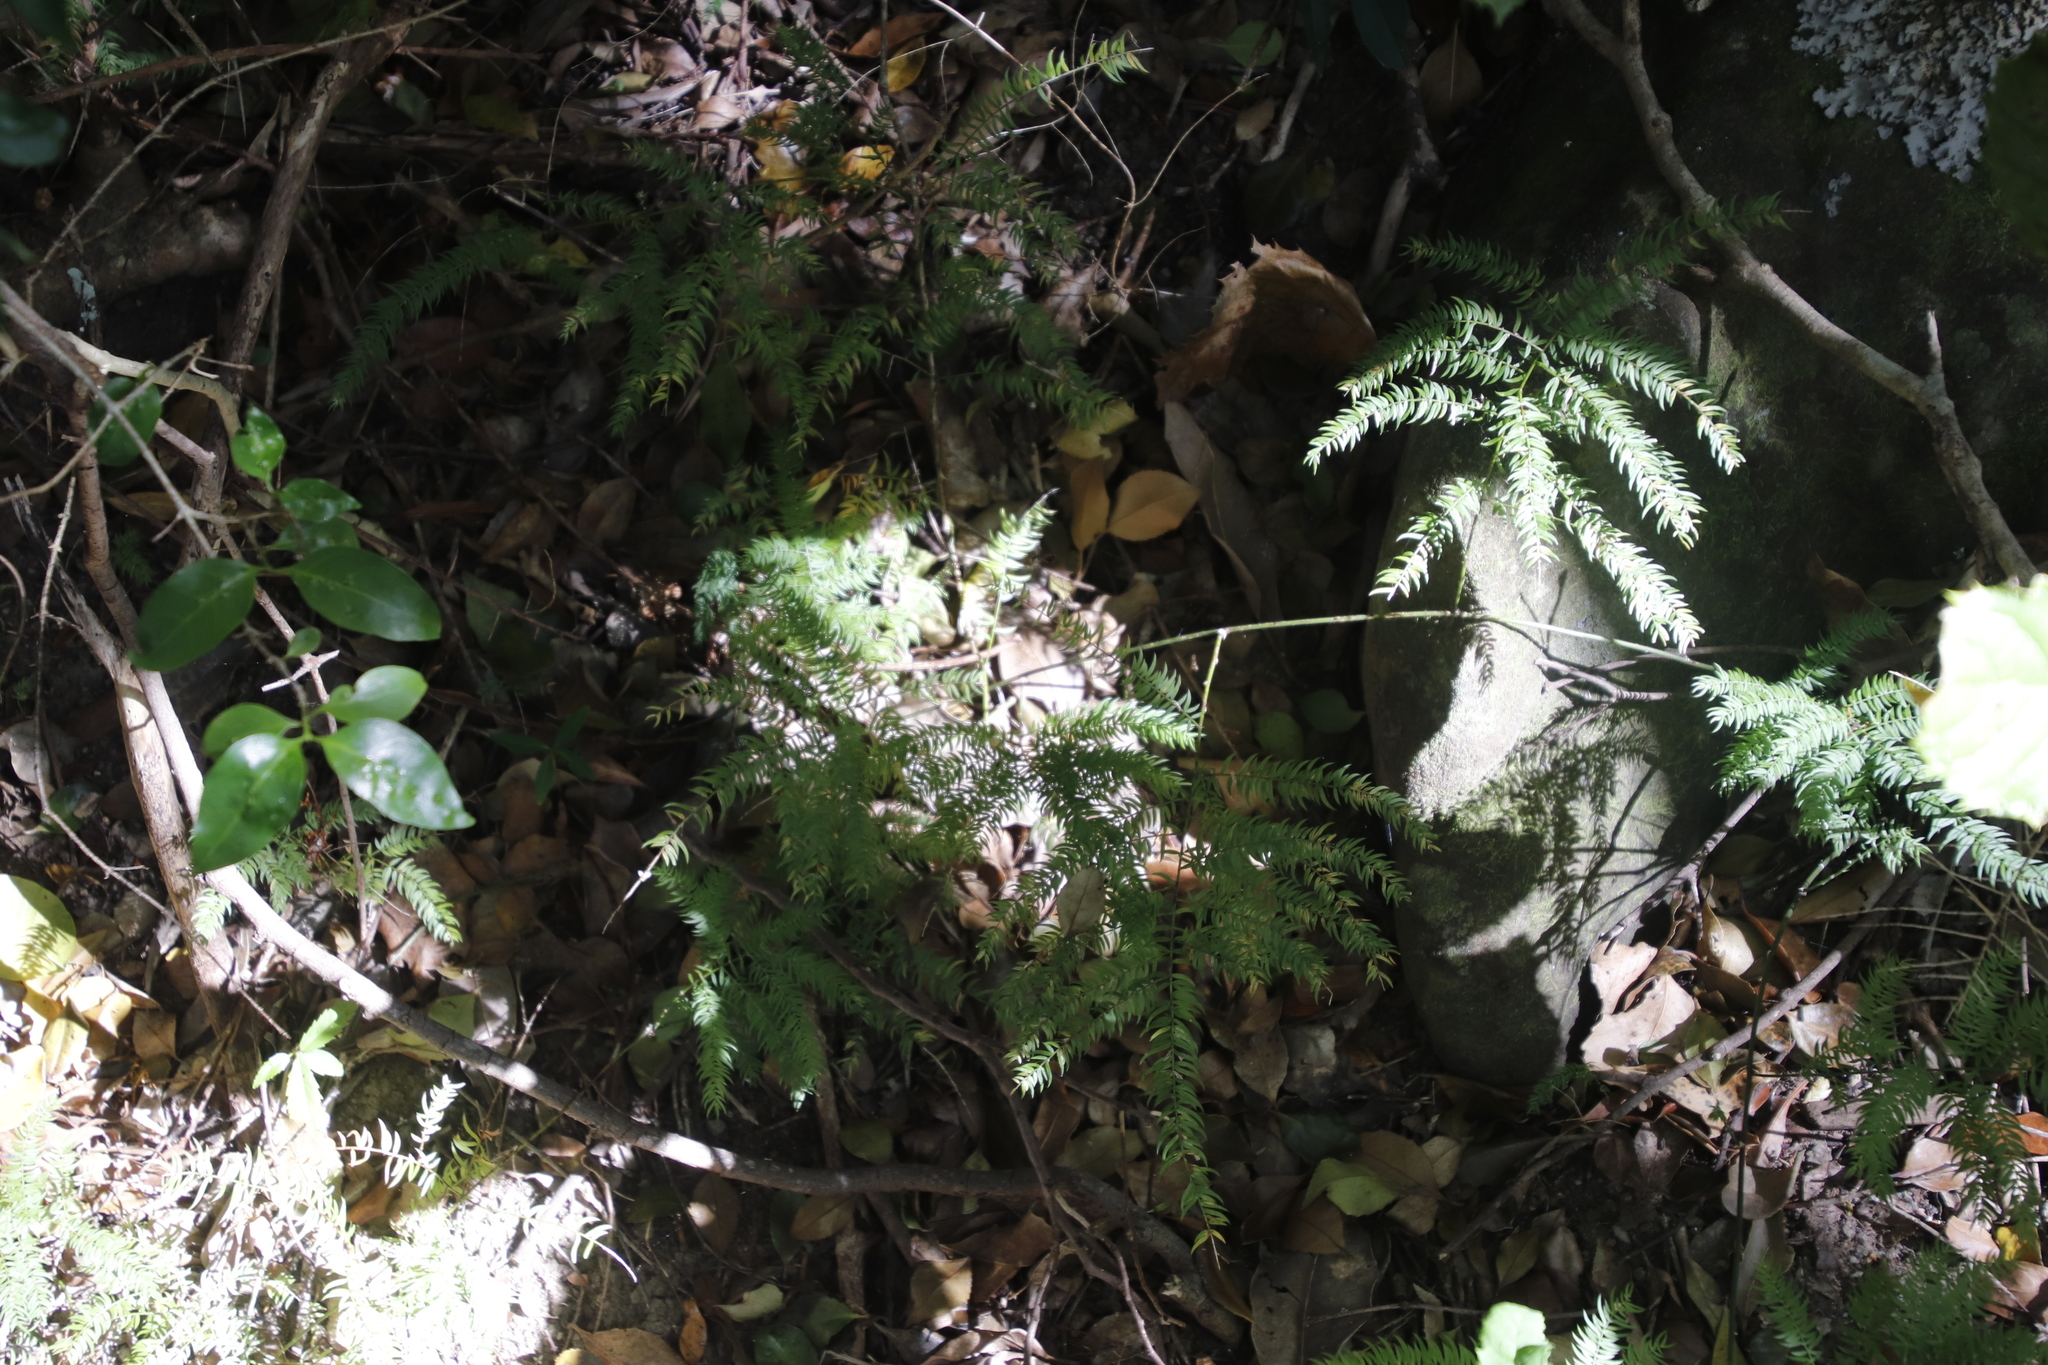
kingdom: Plantae
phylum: Tracheophyta
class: Liliopsida
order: Asparagales
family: Asparagaceae
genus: Asparagus
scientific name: Asparagus scandens
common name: Asparagus-fern
